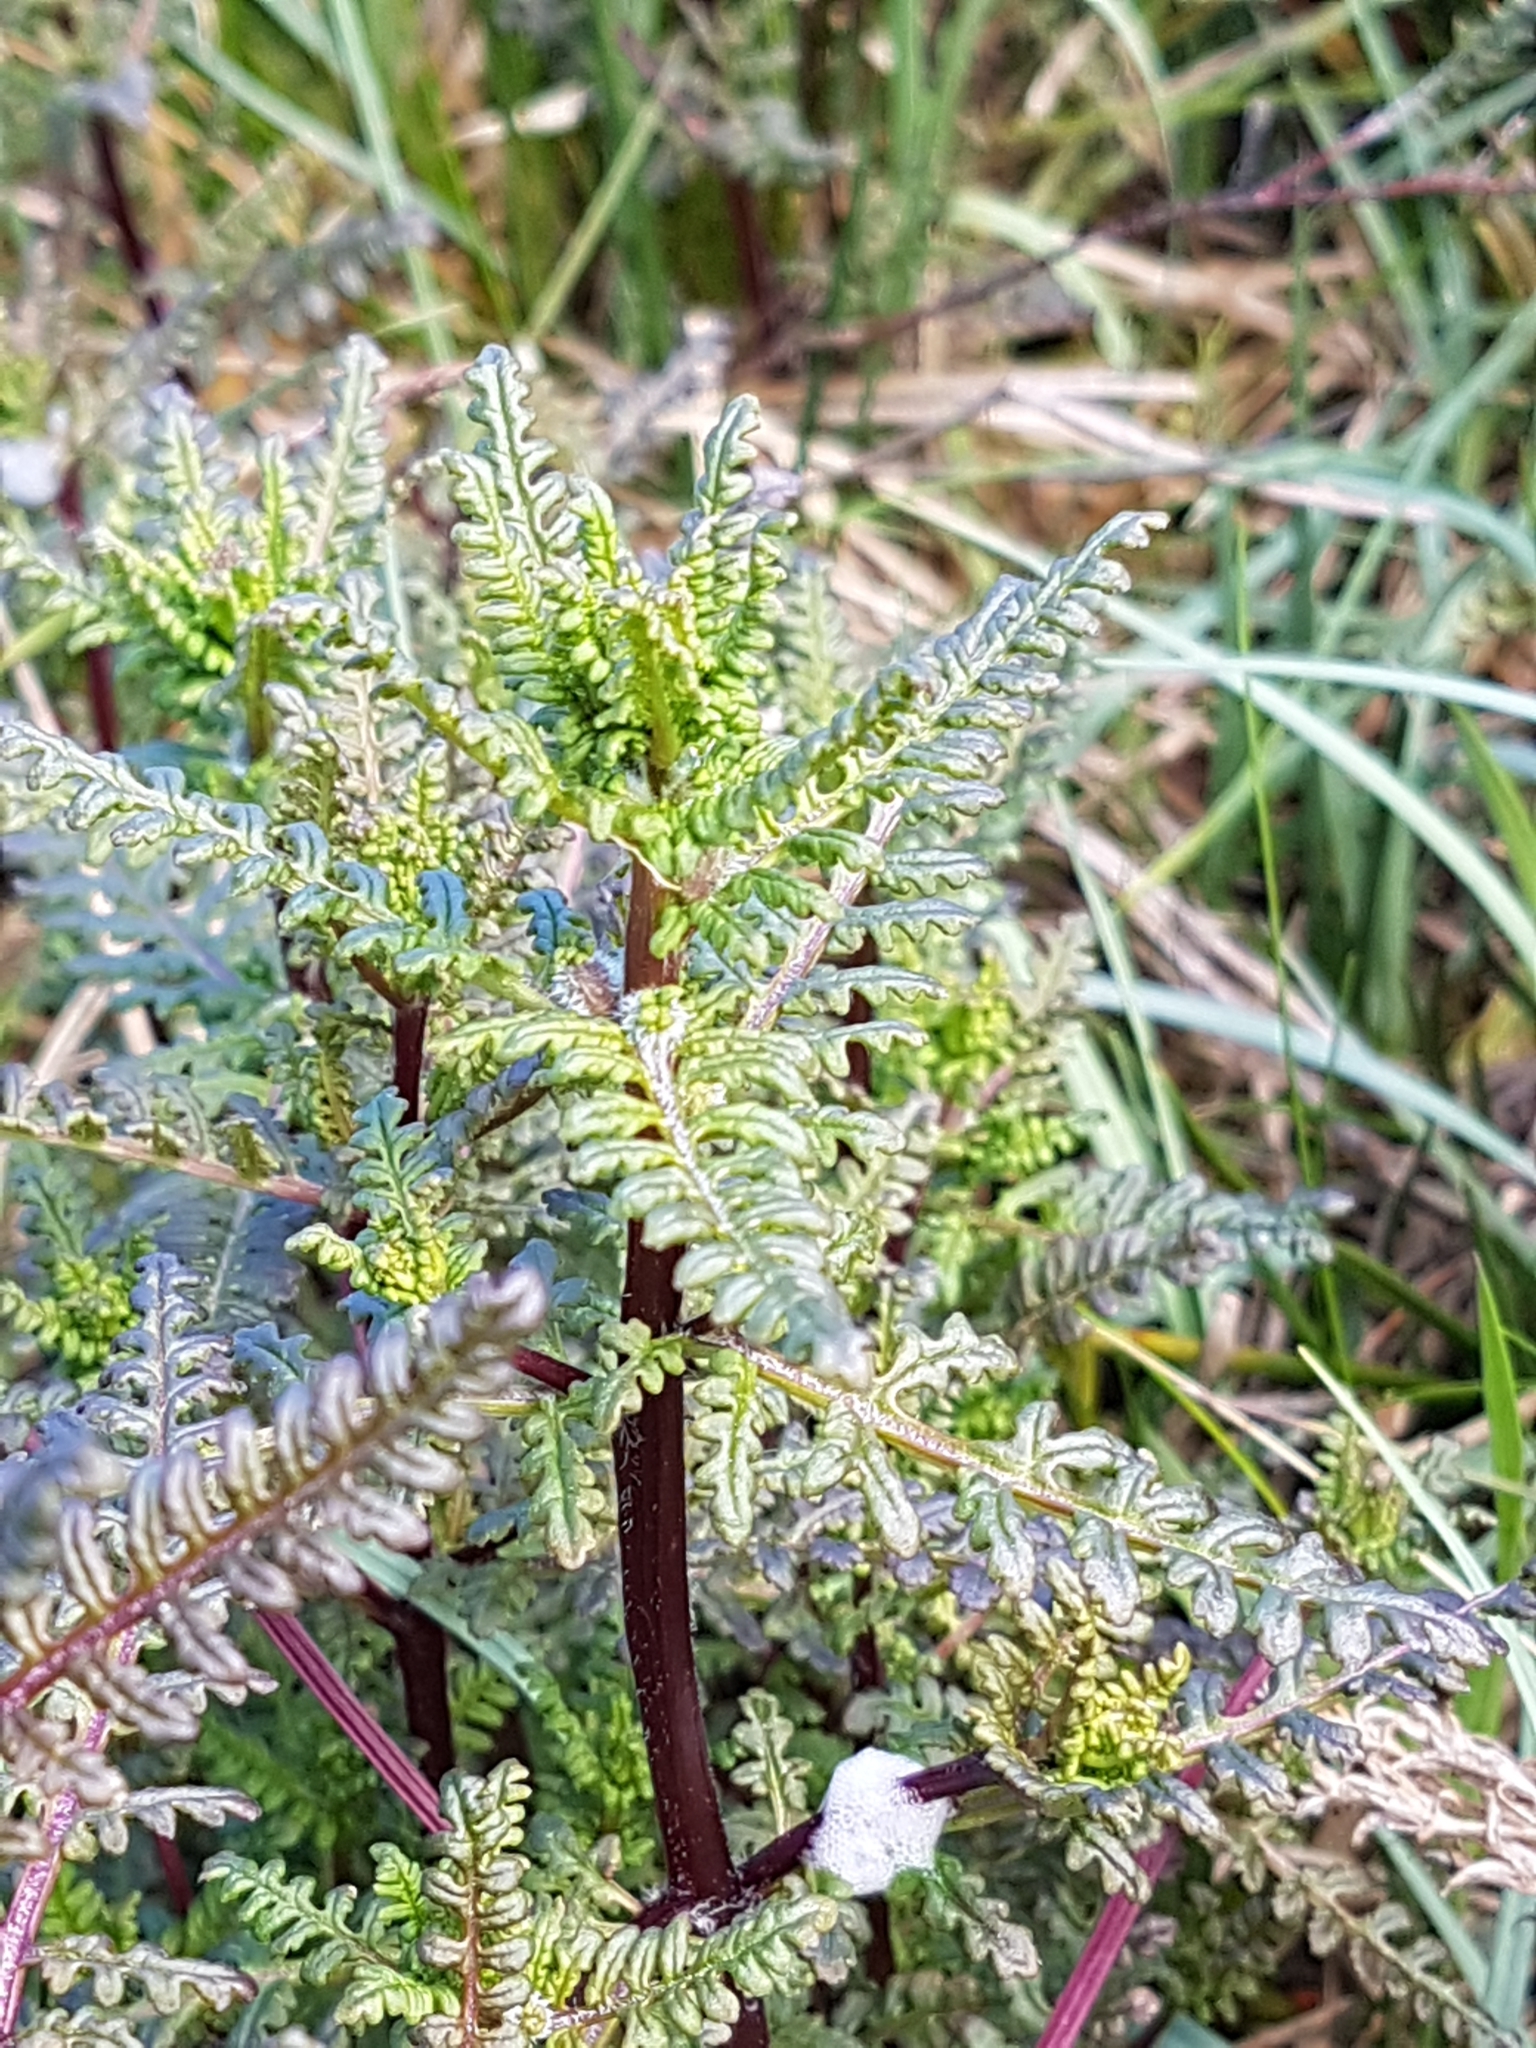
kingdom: Plantae
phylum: Tracheophyta
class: Magnoliopsida
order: Lamiales
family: Orobanchaceae
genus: Pedicularis
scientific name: Pedicularis palustris
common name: Marsh lousewort
